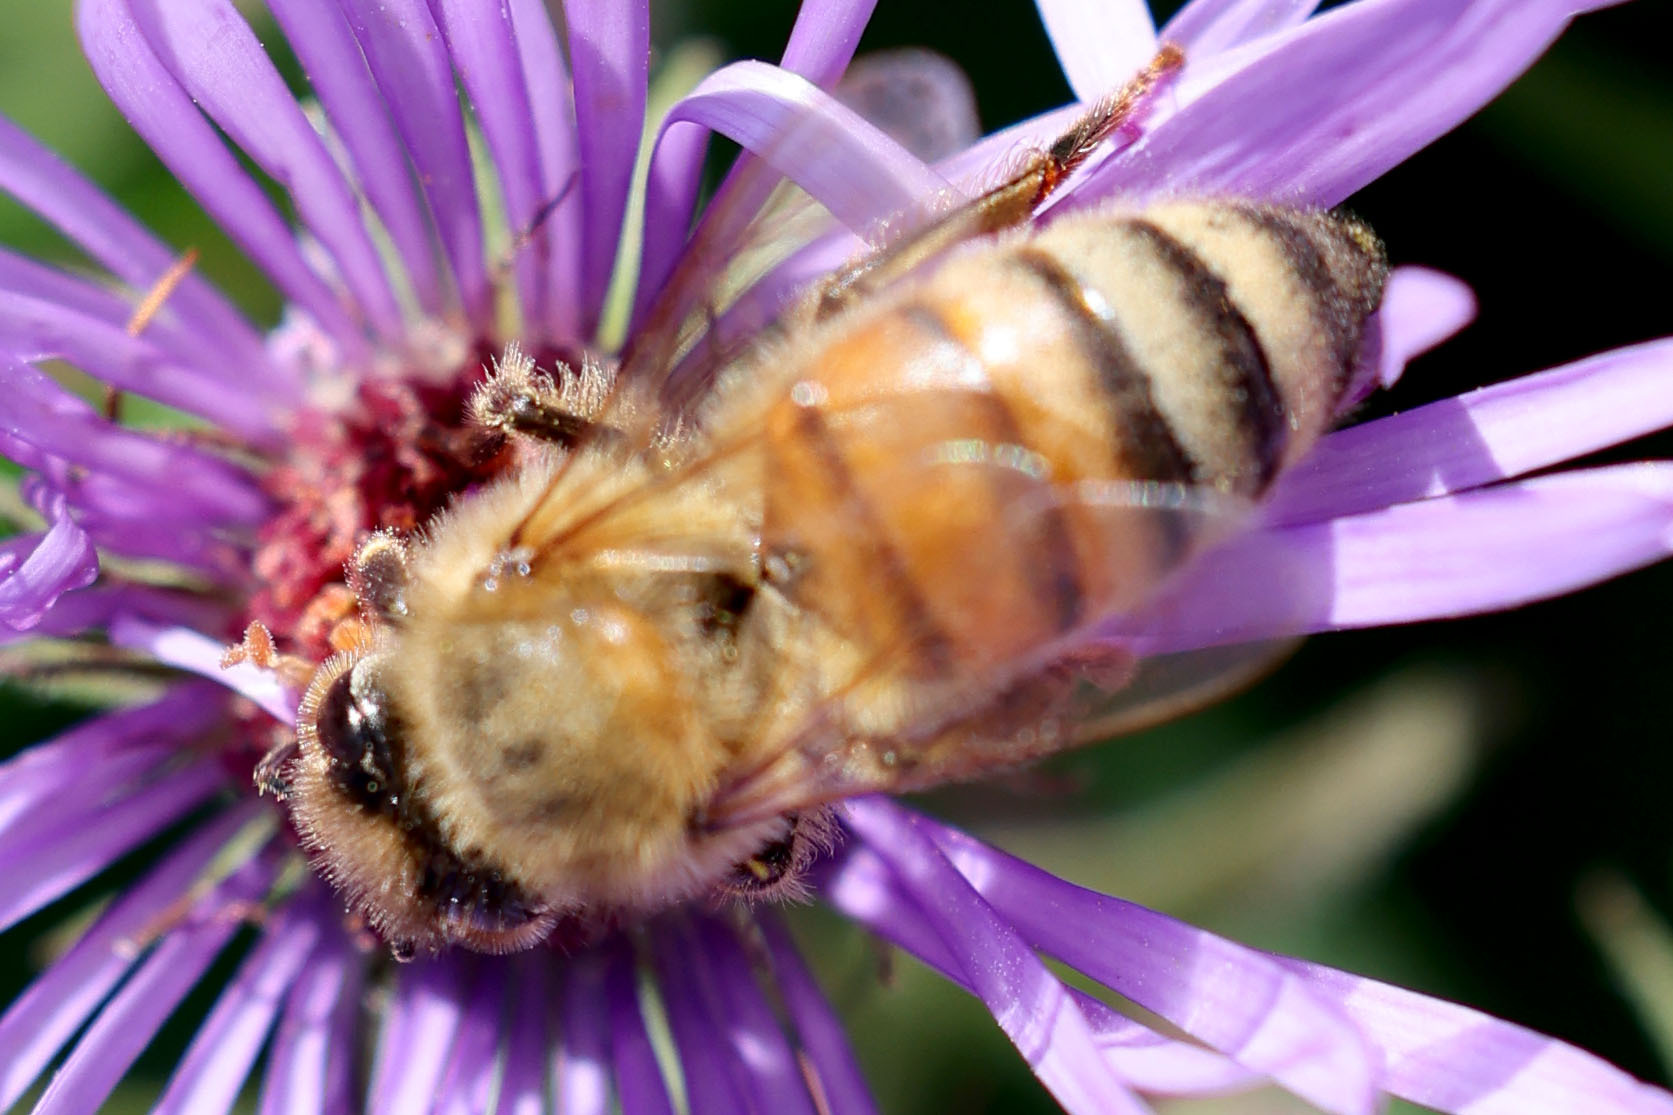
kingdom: Animalia
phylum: Arthropoda
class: Insecta
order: Hymenoptera
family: Apidae
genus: Apis
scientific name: Apis mellifera
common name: Honey bee
